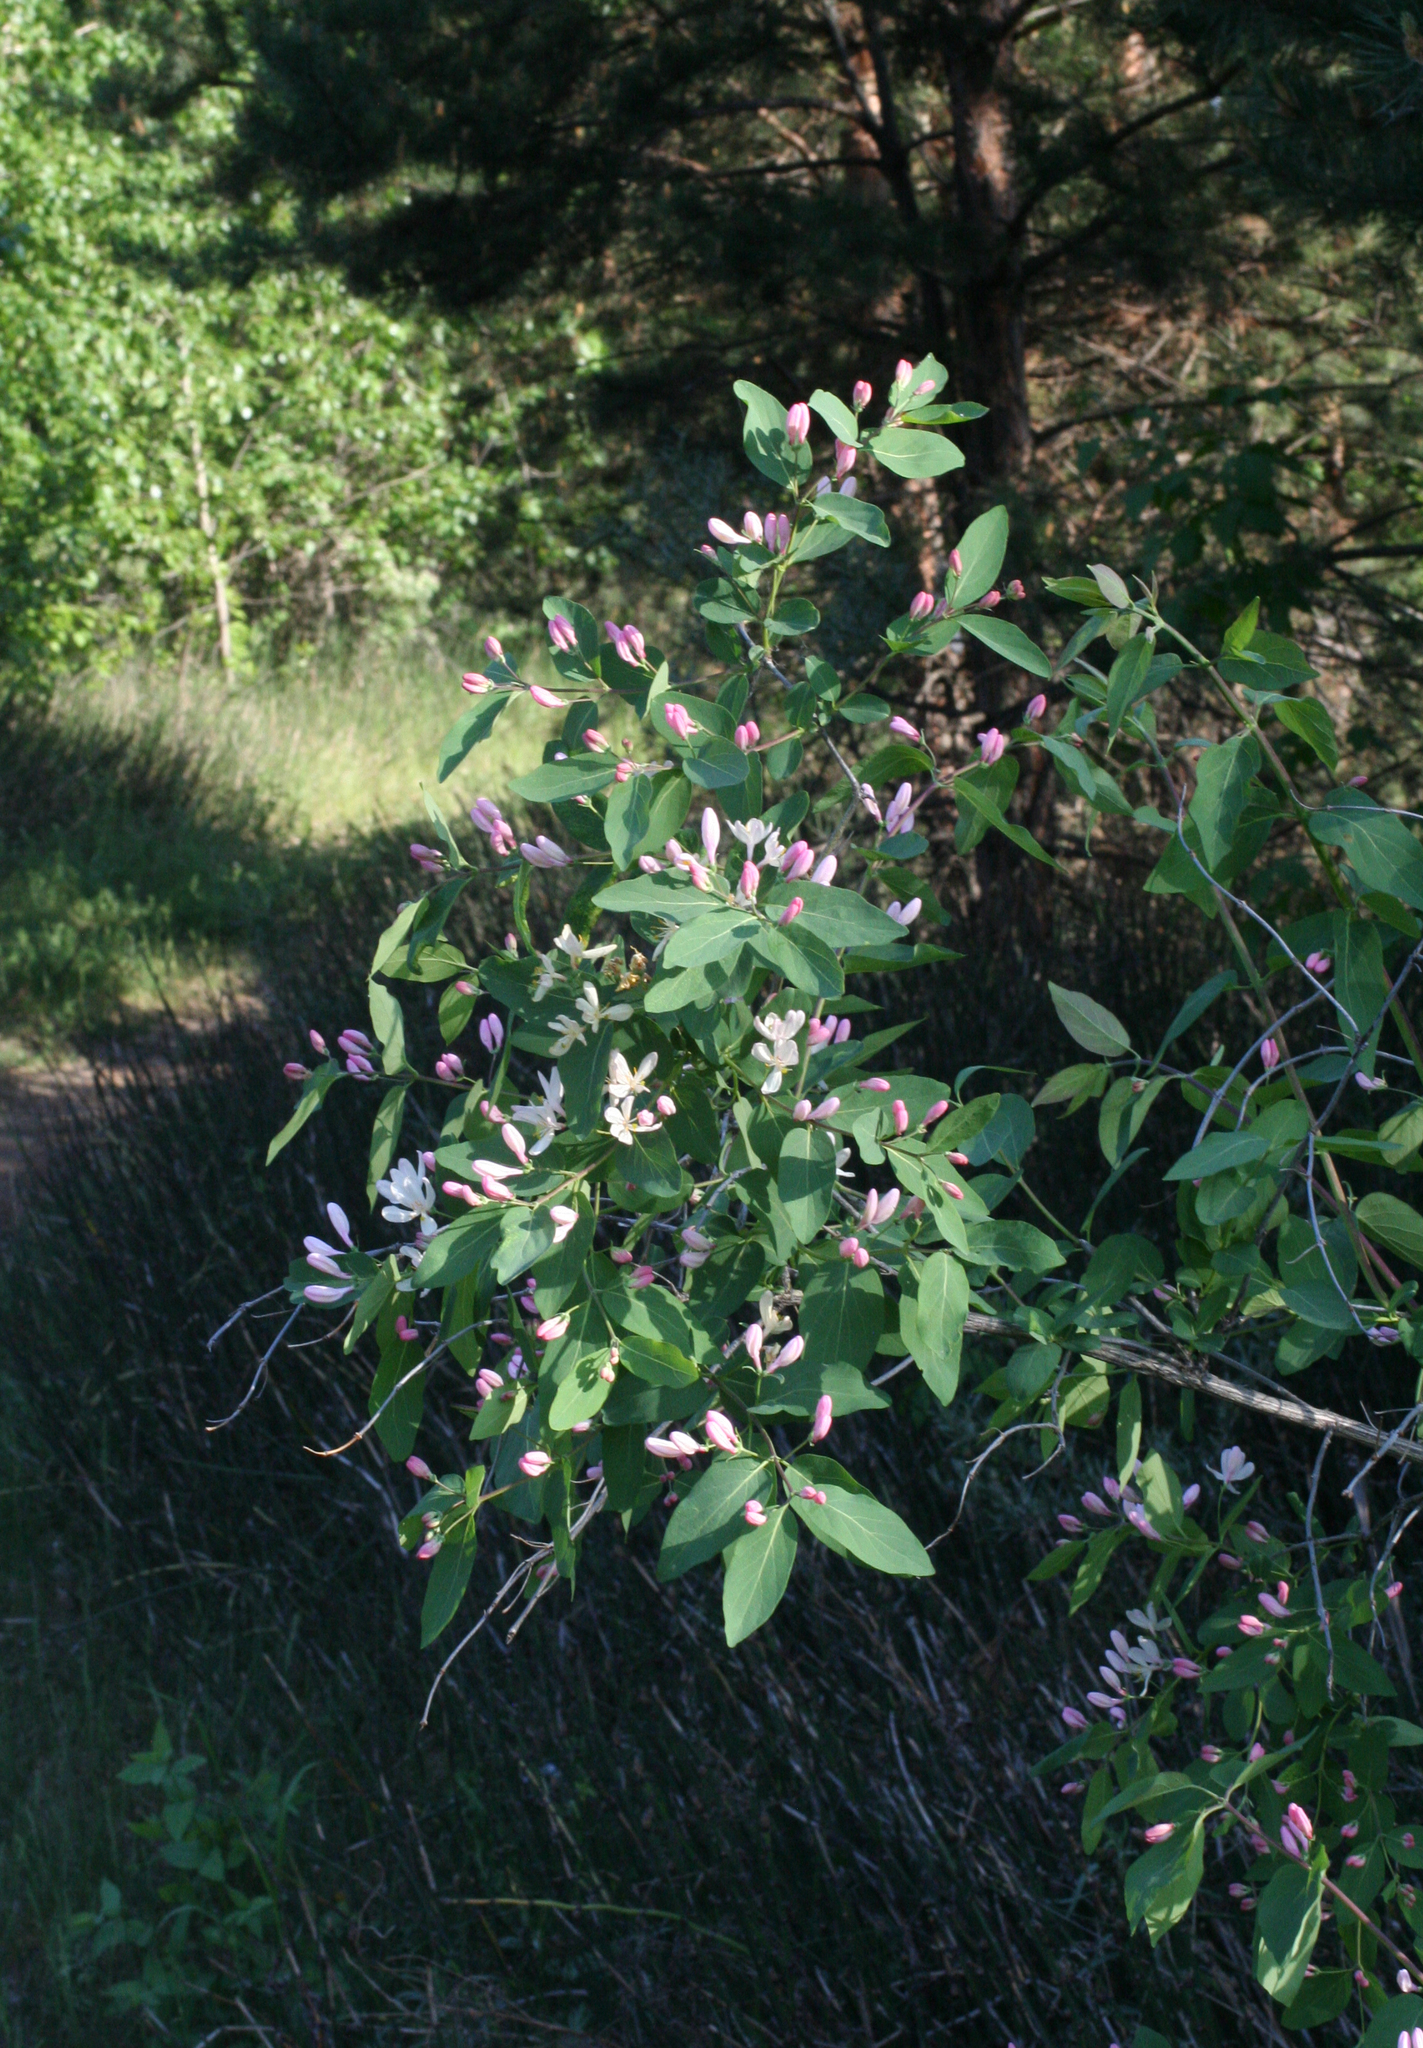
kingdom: Plantae
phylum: Tracheophyta
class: Magnoliopsida
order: Dipsacales
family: Caprifoliaceae
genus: Lonicera
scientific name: Lonicera tatarica
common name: Tatarian honeysuckle
